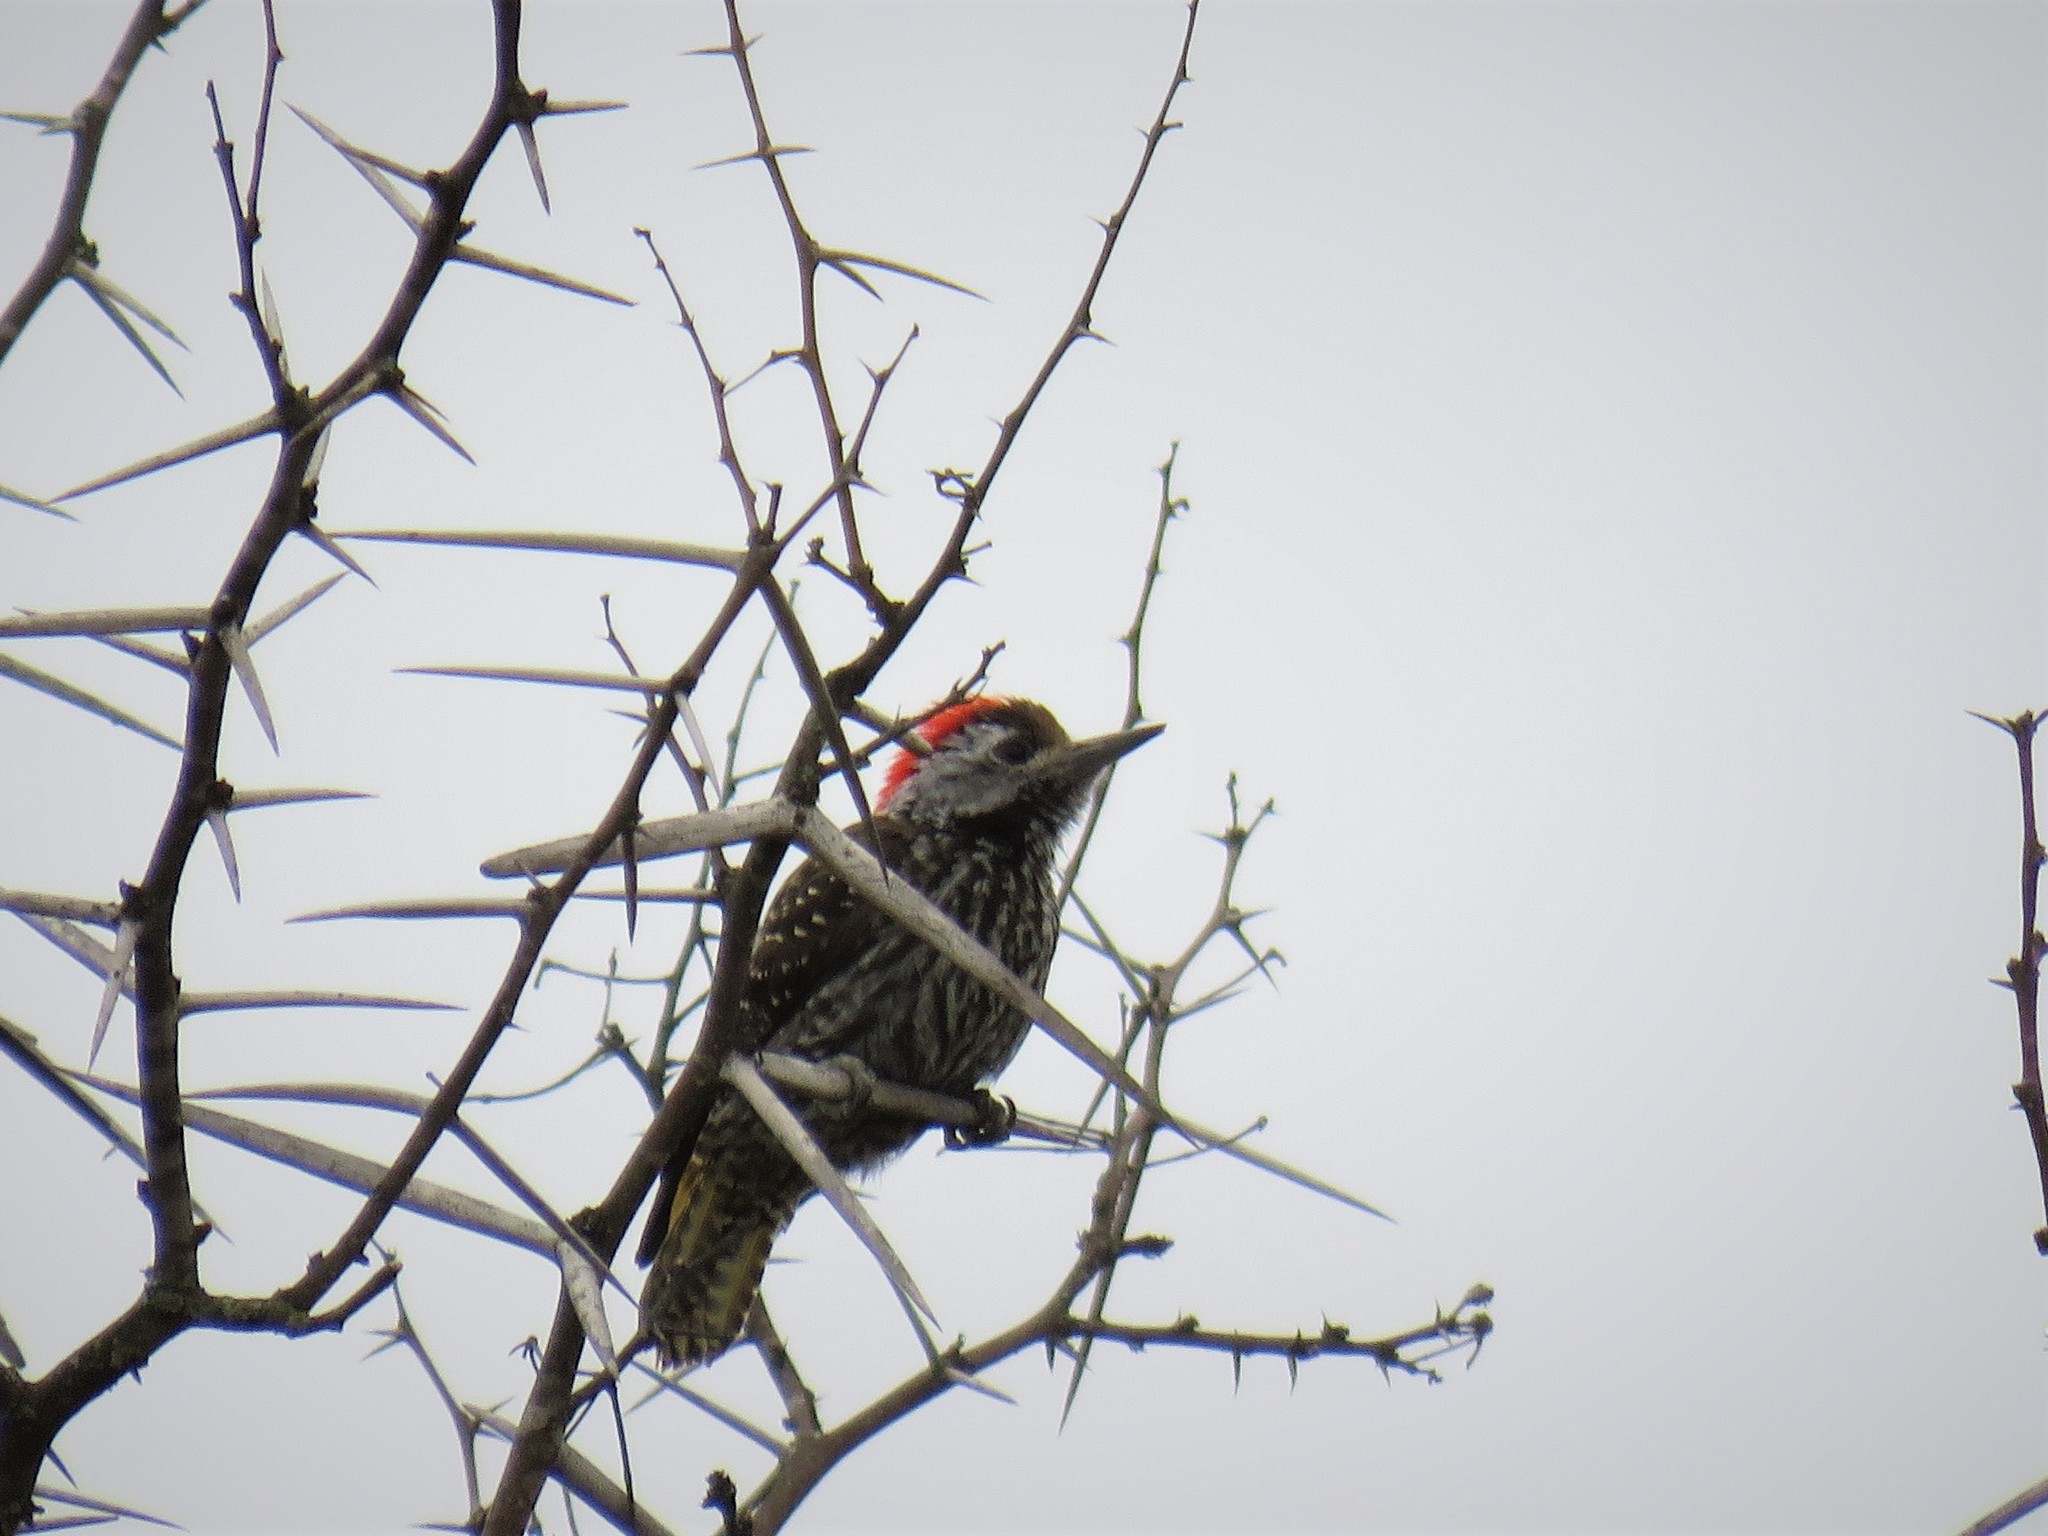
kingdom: Animalia
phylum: Chordata
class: Aves
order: Piciformes
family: Picidae
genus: Dendropicos
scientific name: Dendropicos fuscescens
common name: Cardinal woodpecker
